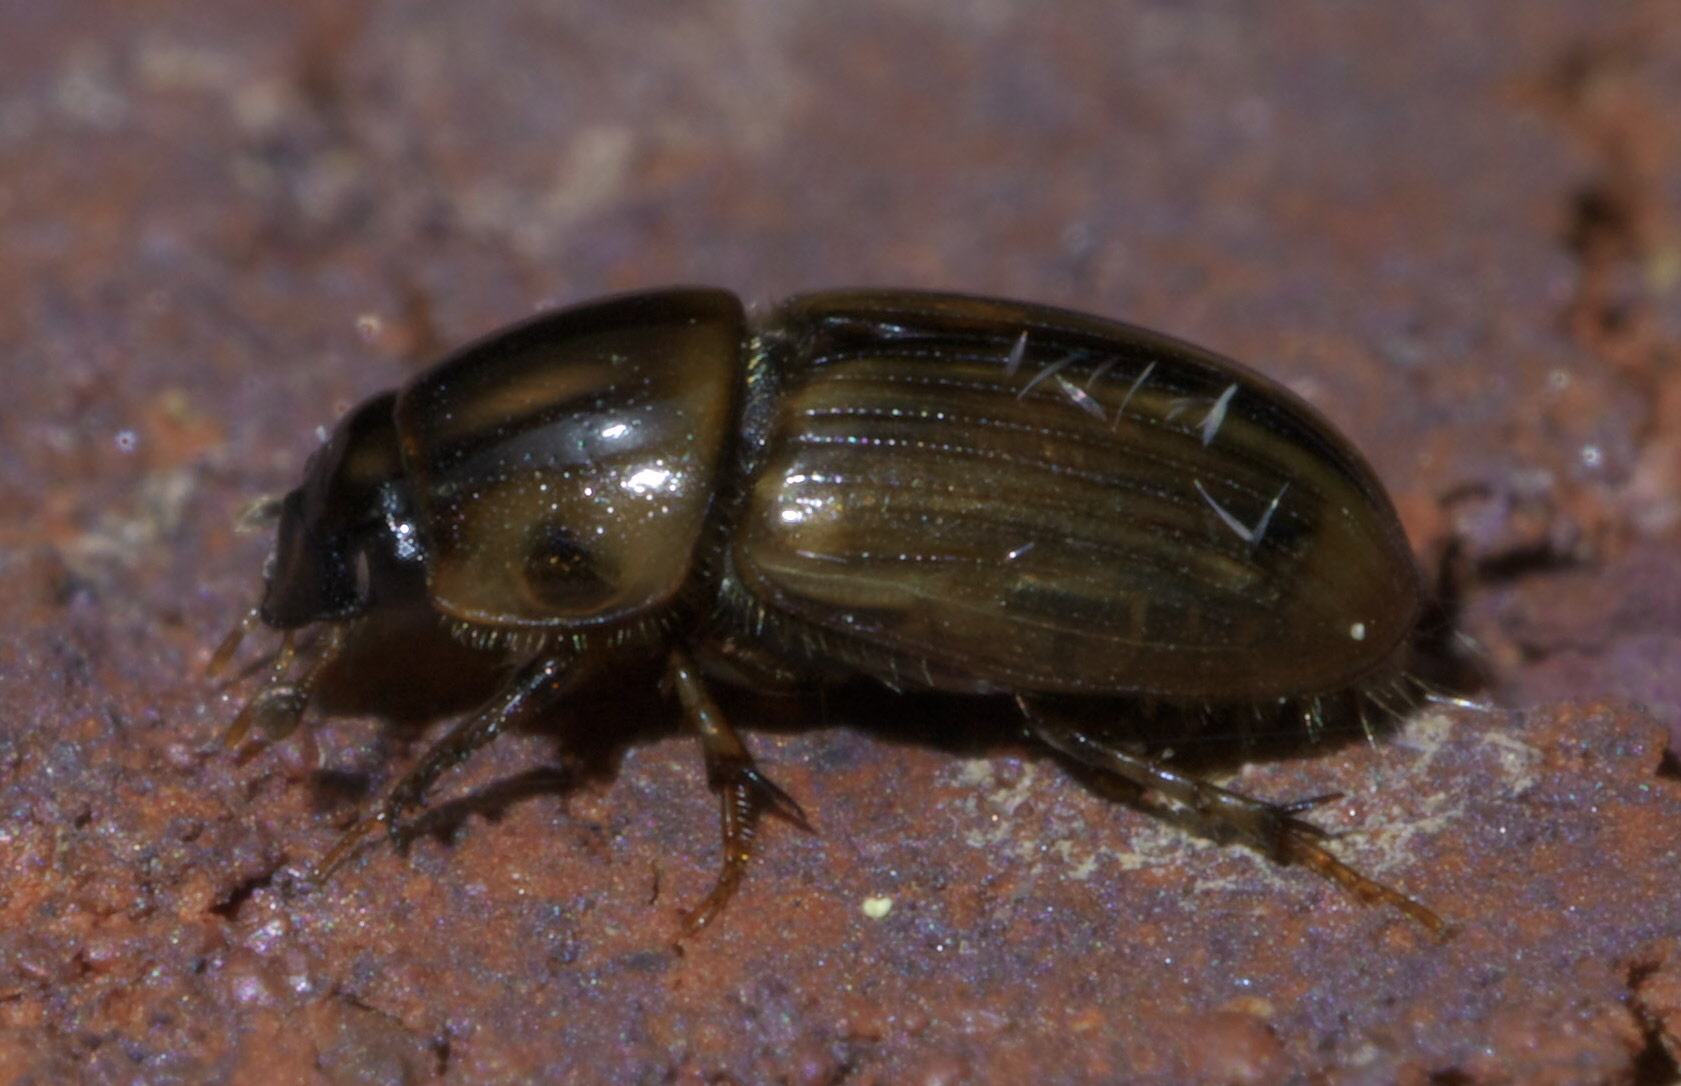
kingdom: Animalia
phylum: Arthropoda
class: Insecta
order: Coleoptera
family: Scarabaeidae
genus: Labarrus
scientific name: Labarrus lividus
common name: Scarab beetle
